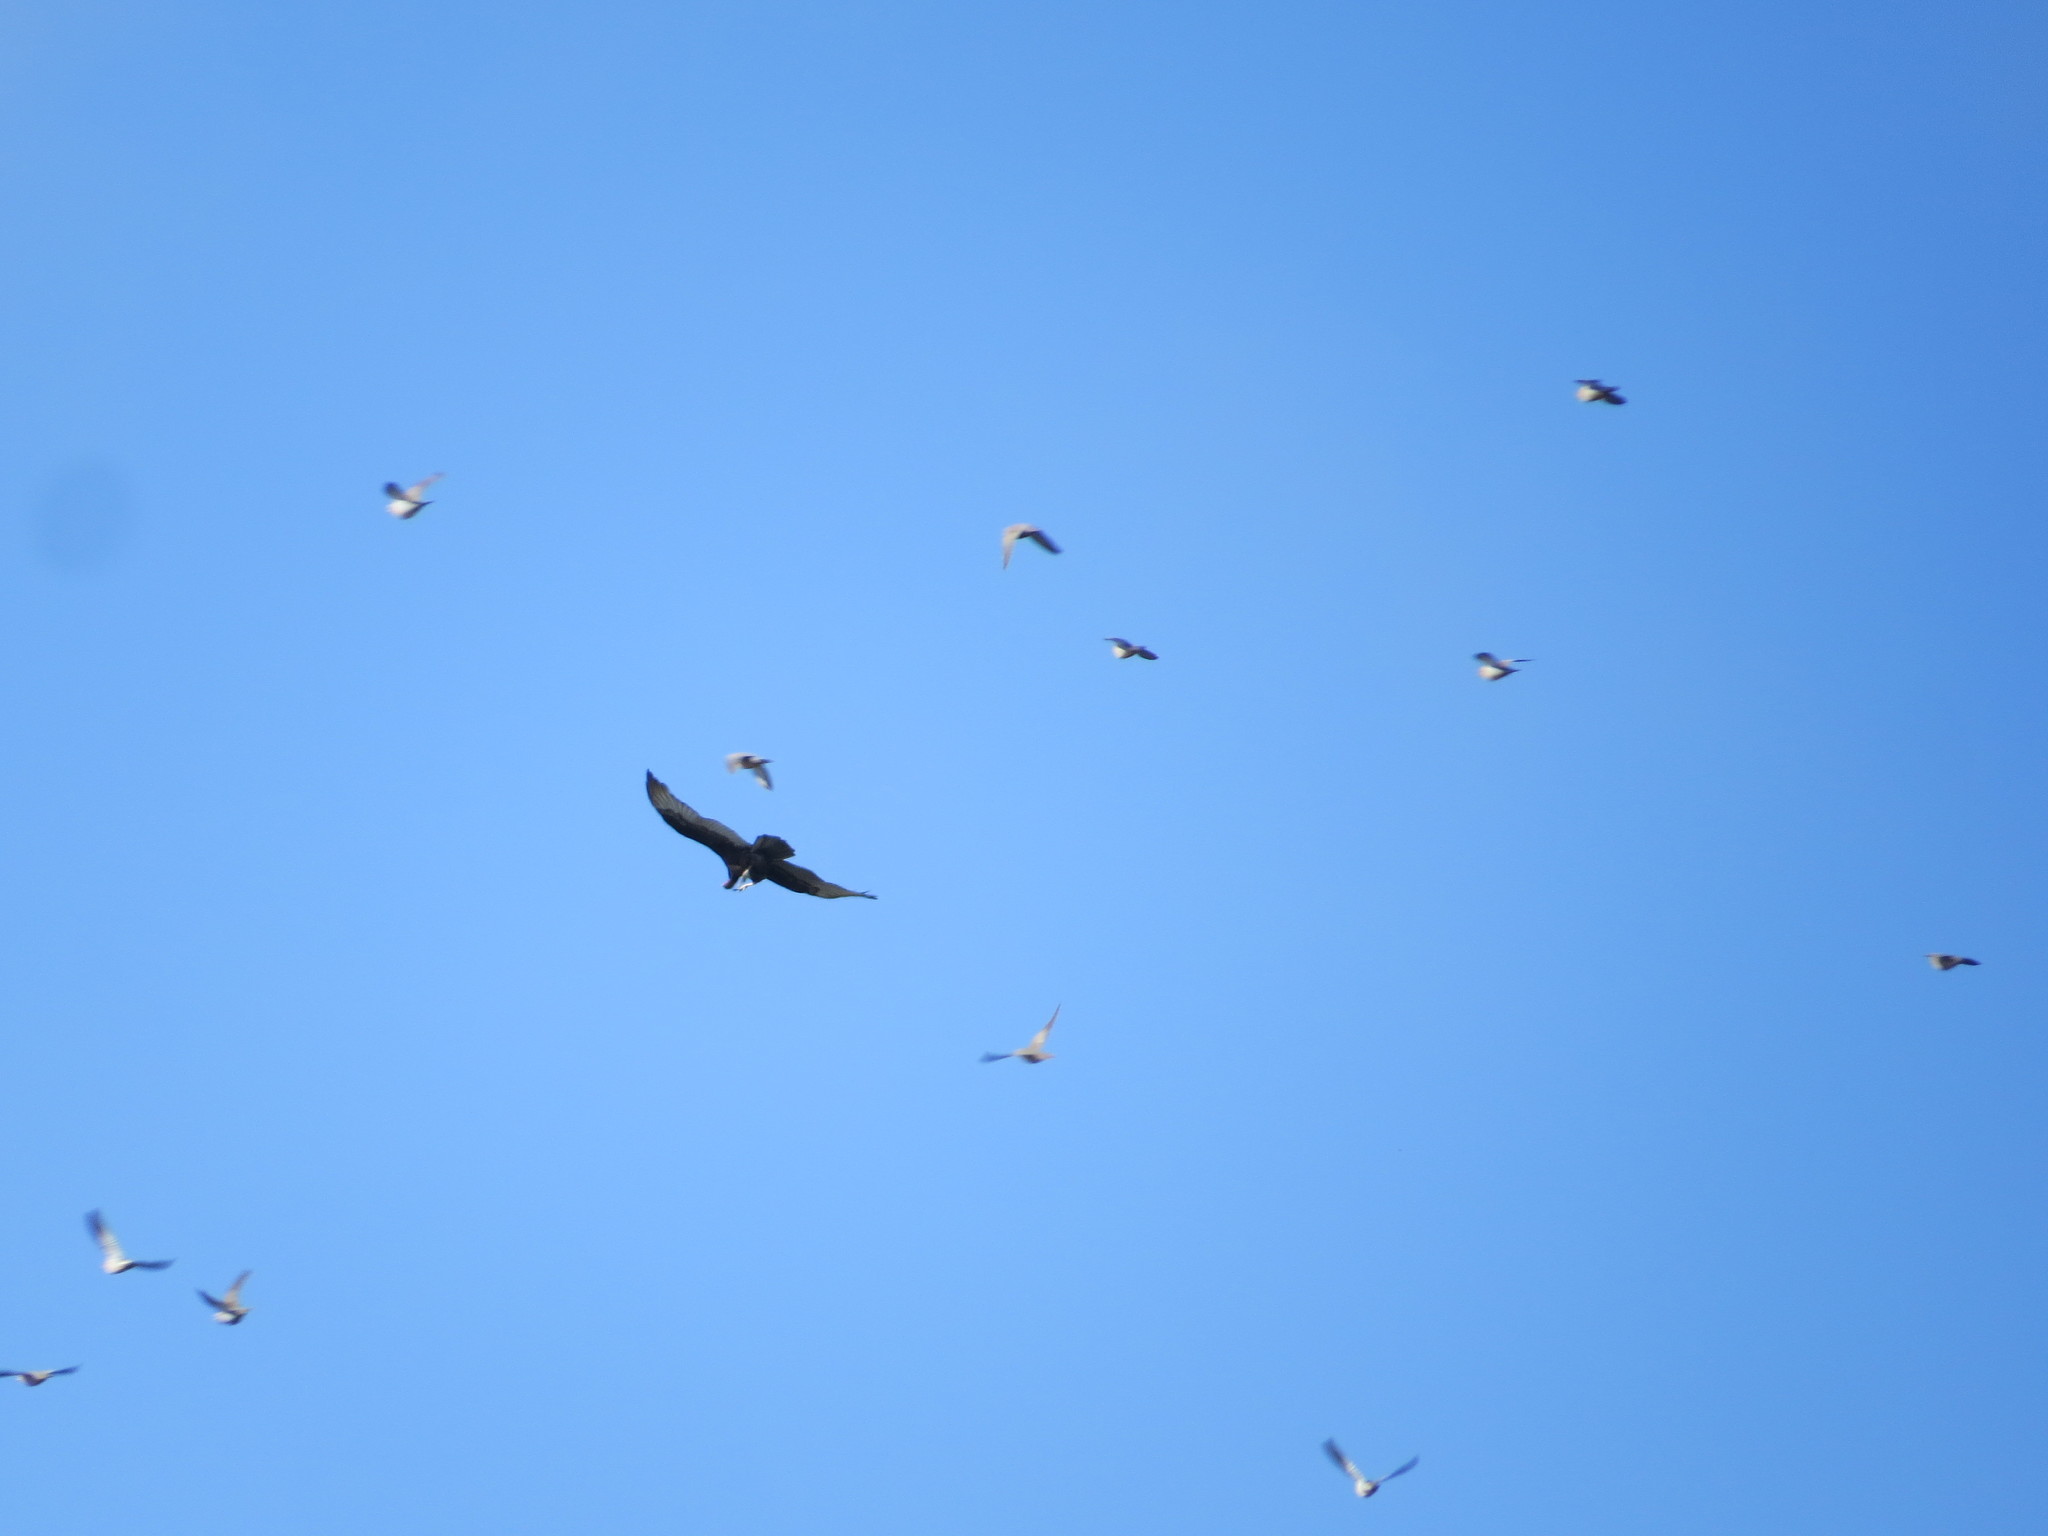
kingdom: Animalia
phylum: Chordata
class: Aves
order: Accipitriformes
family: Cathartidae
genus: Cathartes
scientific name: Cathartes aura
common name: Turkey vulture
